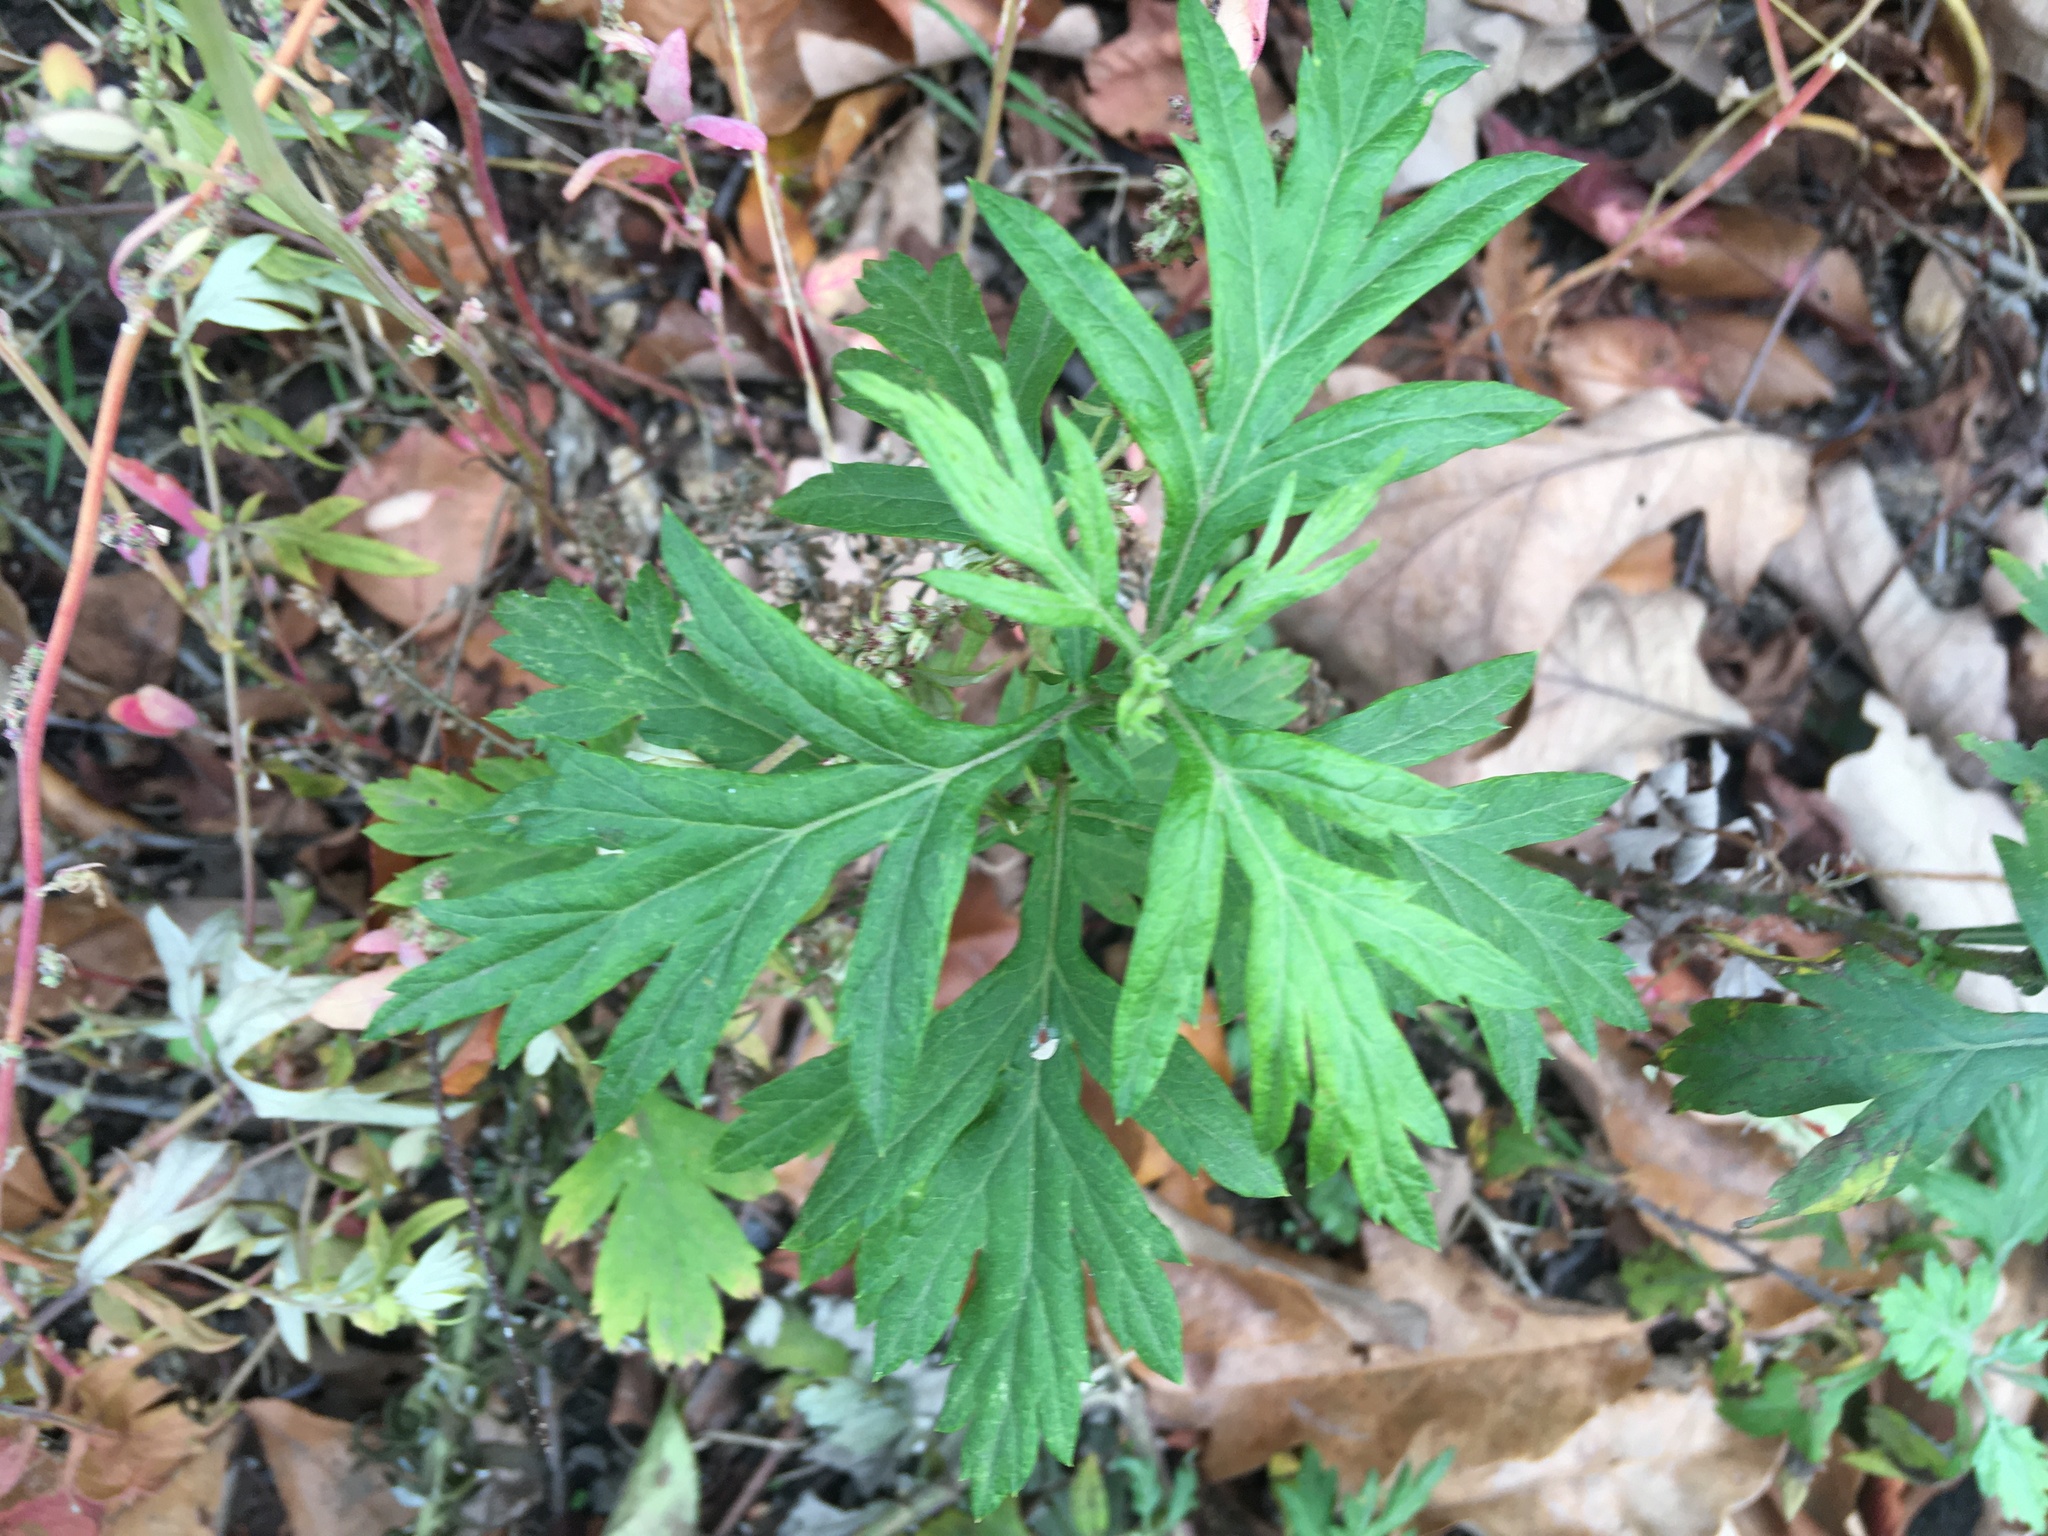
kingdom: Plantae
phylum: Tracheophyta
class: Magnoliopsida
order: Asterales
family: Asteraceae
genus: Artemisia
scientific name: Artemisia vulgaris
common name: Mugwort
